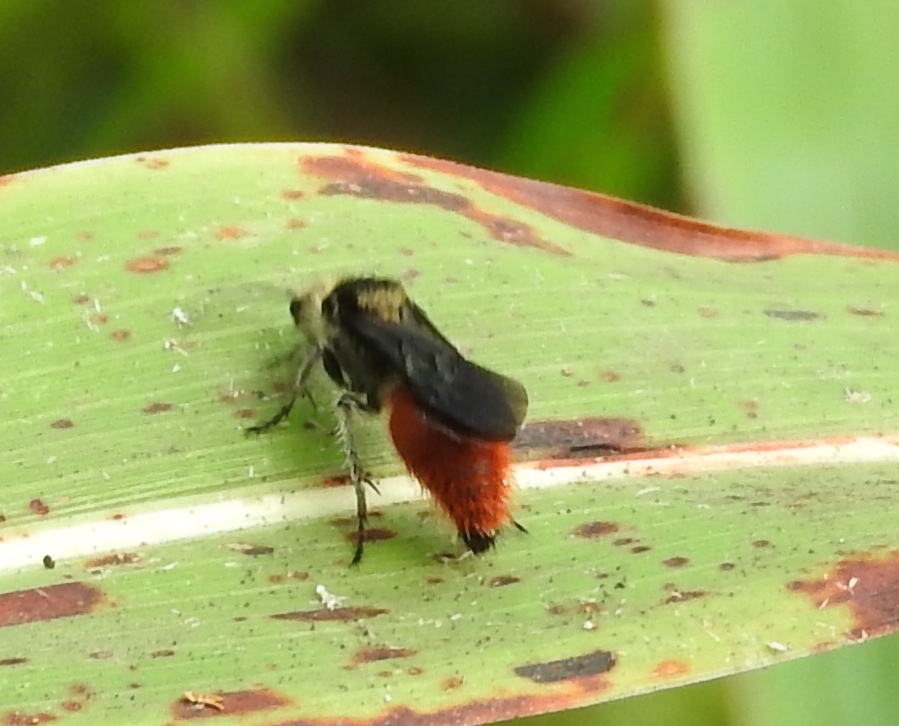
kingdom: Animalia
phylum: Arthropoda
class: Insecta
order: Hymenoptera
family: Mutillidae
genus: Dasymutilla
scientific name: Dasymutilla
